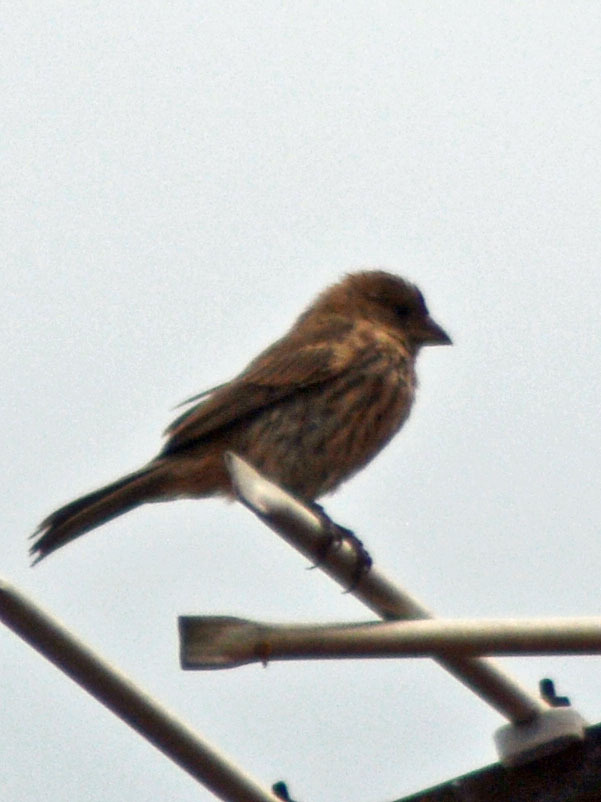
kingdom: Animalia
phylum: Chordata
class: Aves
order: Passeriformes
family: Fringillidae
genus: Haemorhous
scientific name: Haemorhous mexicanus
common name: House finch
